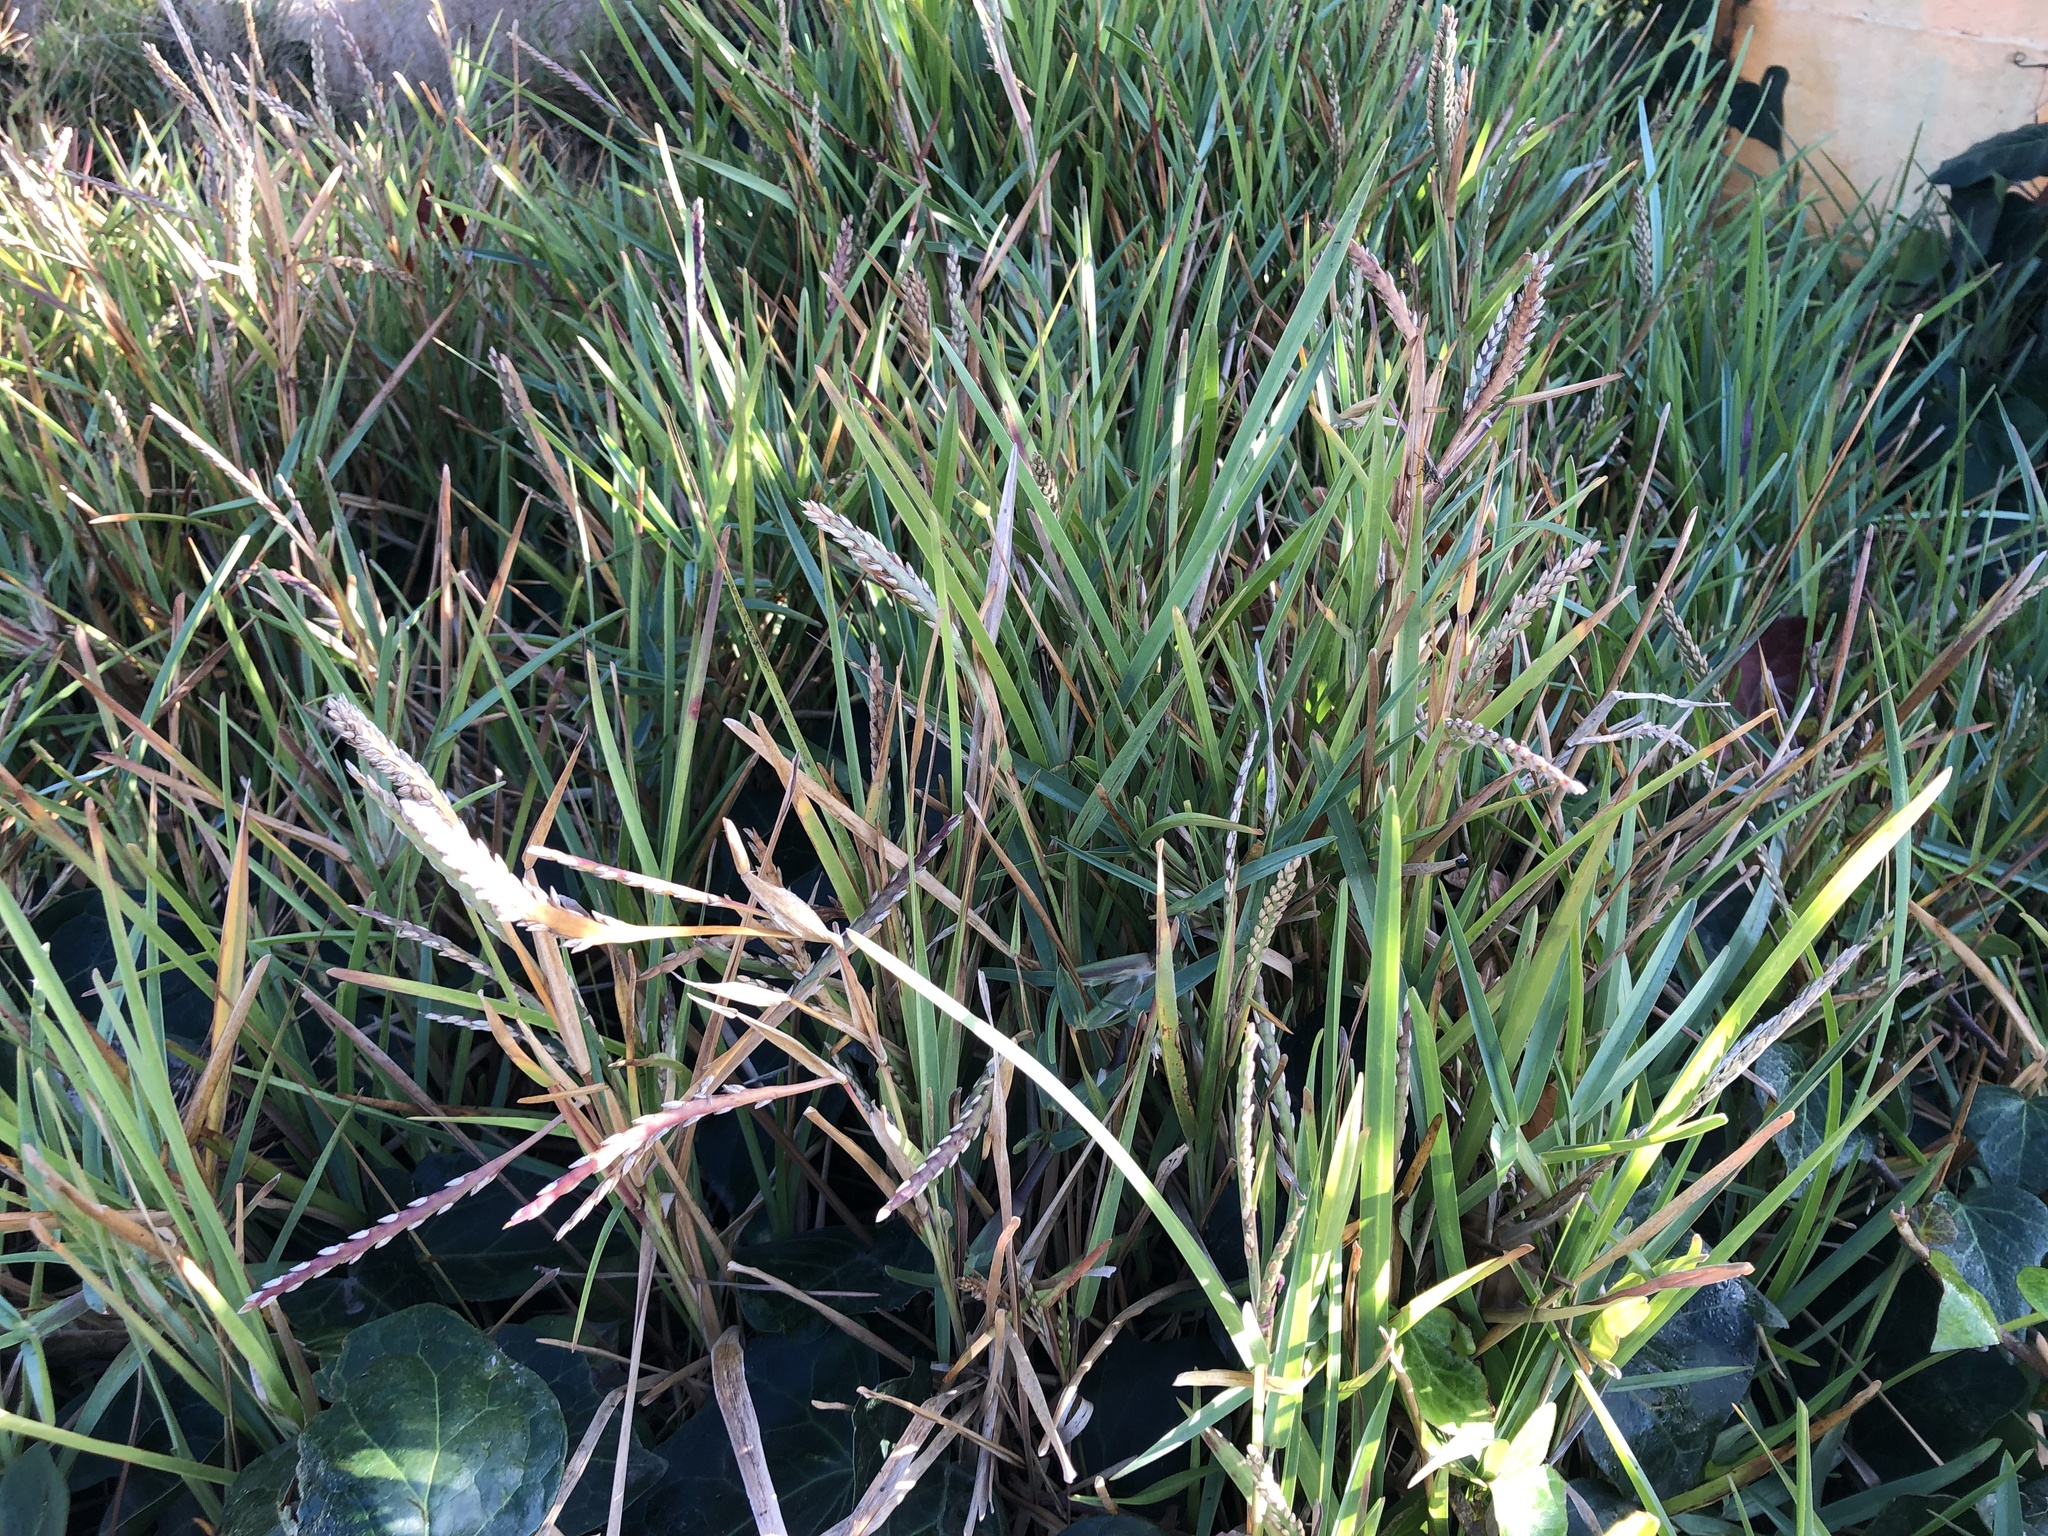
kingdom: Plantae
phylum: Tracheophyta
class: Liliopsida
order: Poales
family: Poaceae
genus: Stenotaphrum
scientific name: Stenotaphrum secundatum
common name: St. augustine grass
